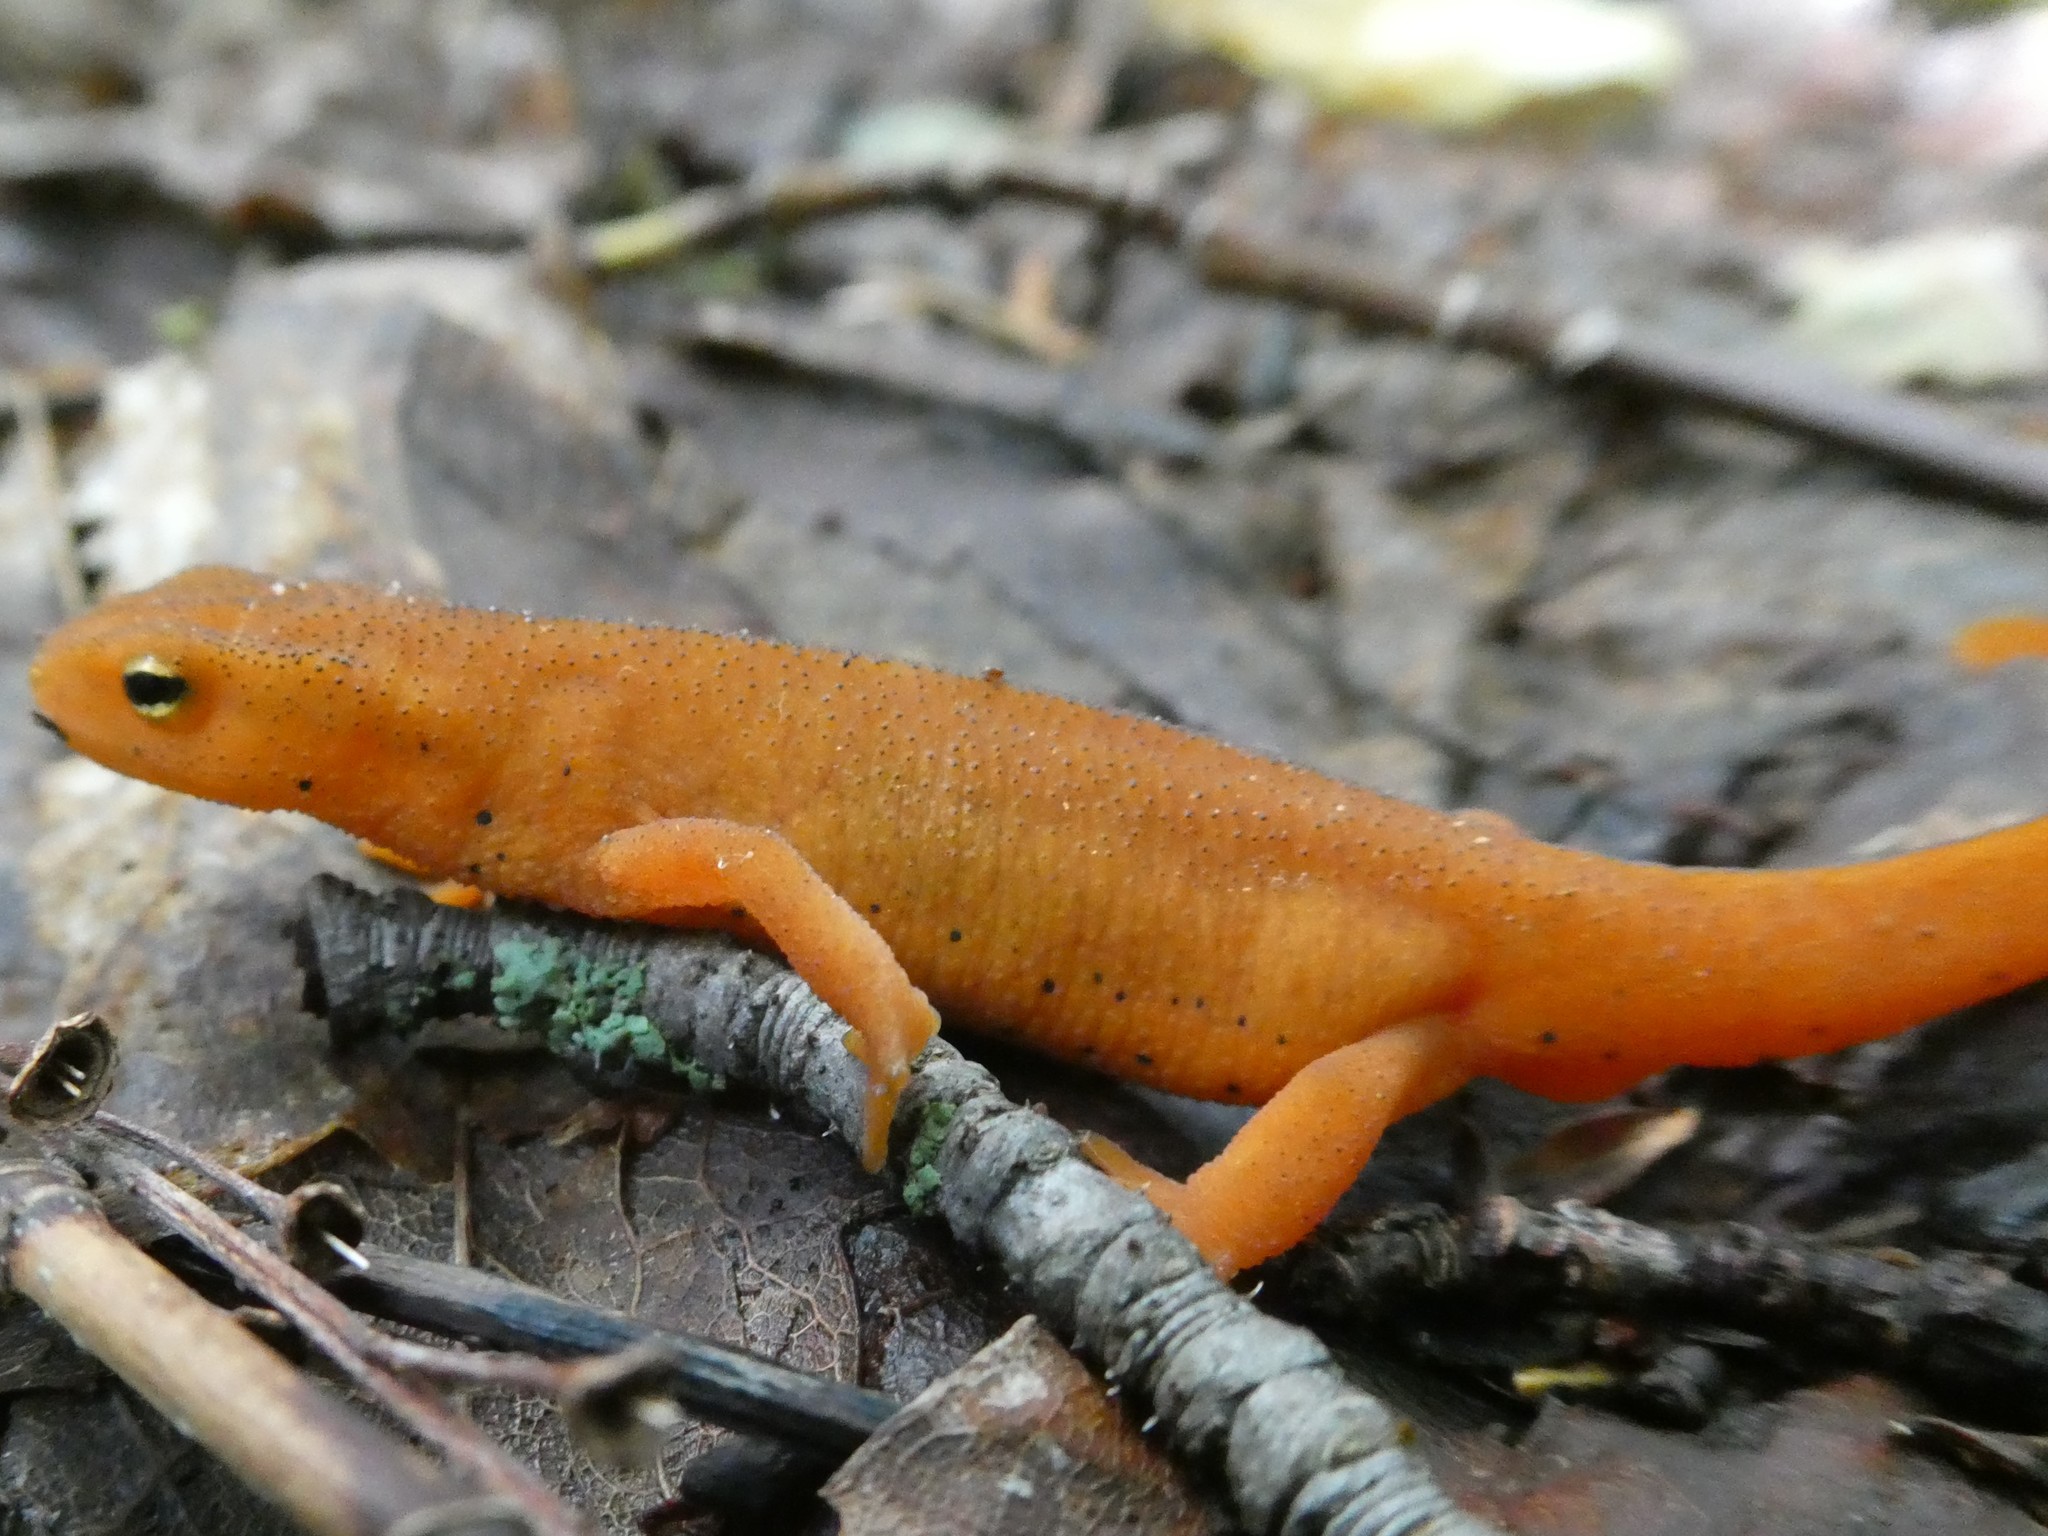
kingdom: Animalia
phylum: Chordata
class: Amphibia
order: Caudata
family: Salamandridae
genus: Notophthalmus
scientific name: Notophthalmus viridescens
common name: Eastern newt
